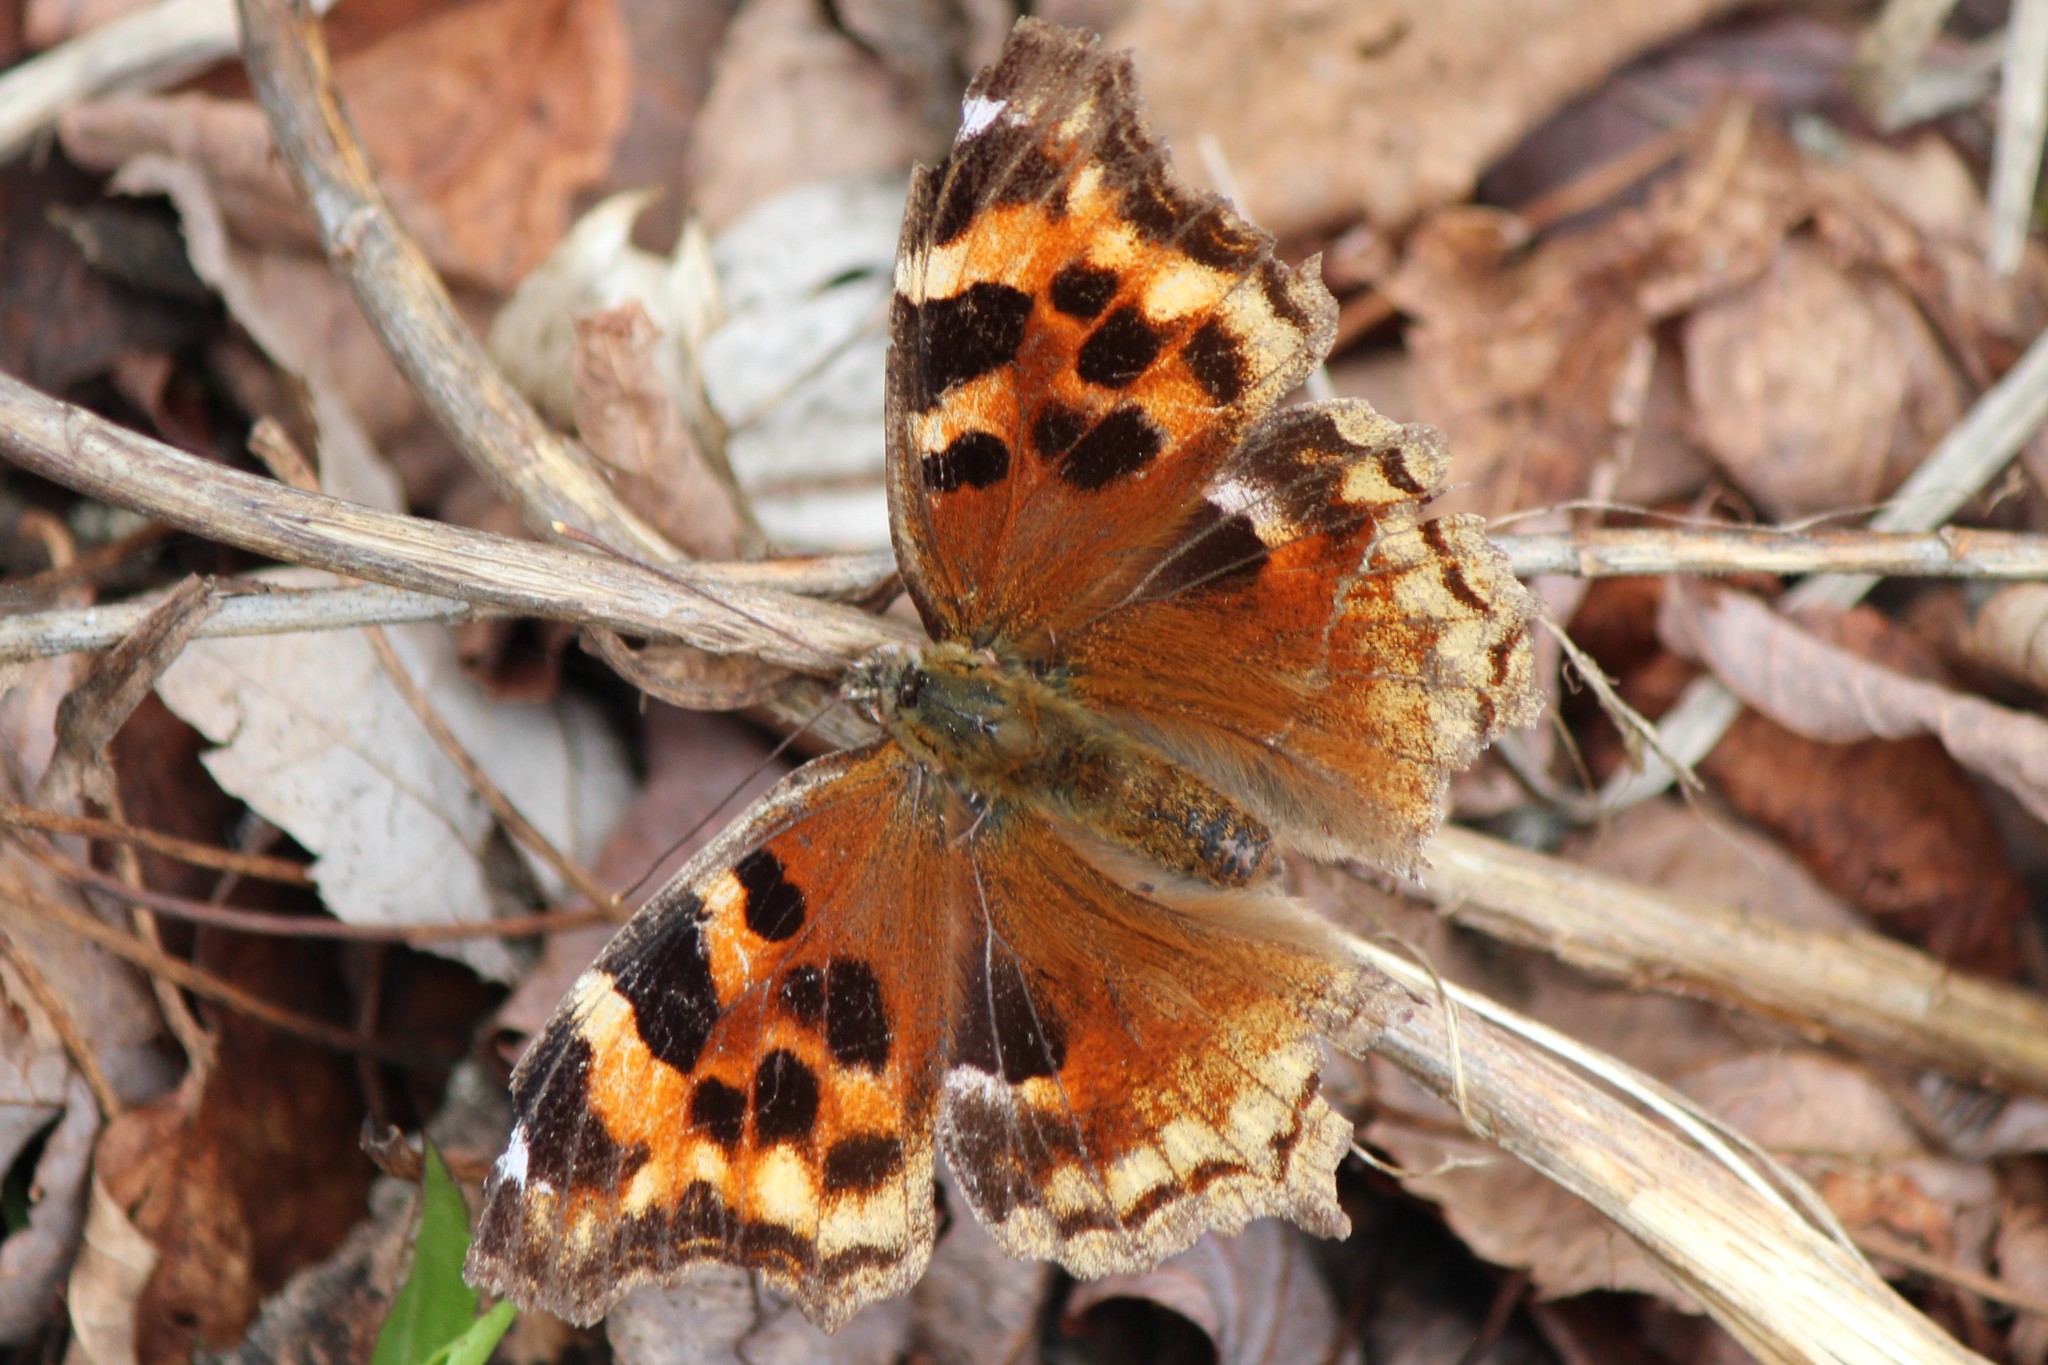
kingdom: Animalia
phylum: Arthropoda
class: Insecta
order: Lepidoptera
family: Nymphalidae
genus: Polygonia
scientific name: Polygonia vaualbum
